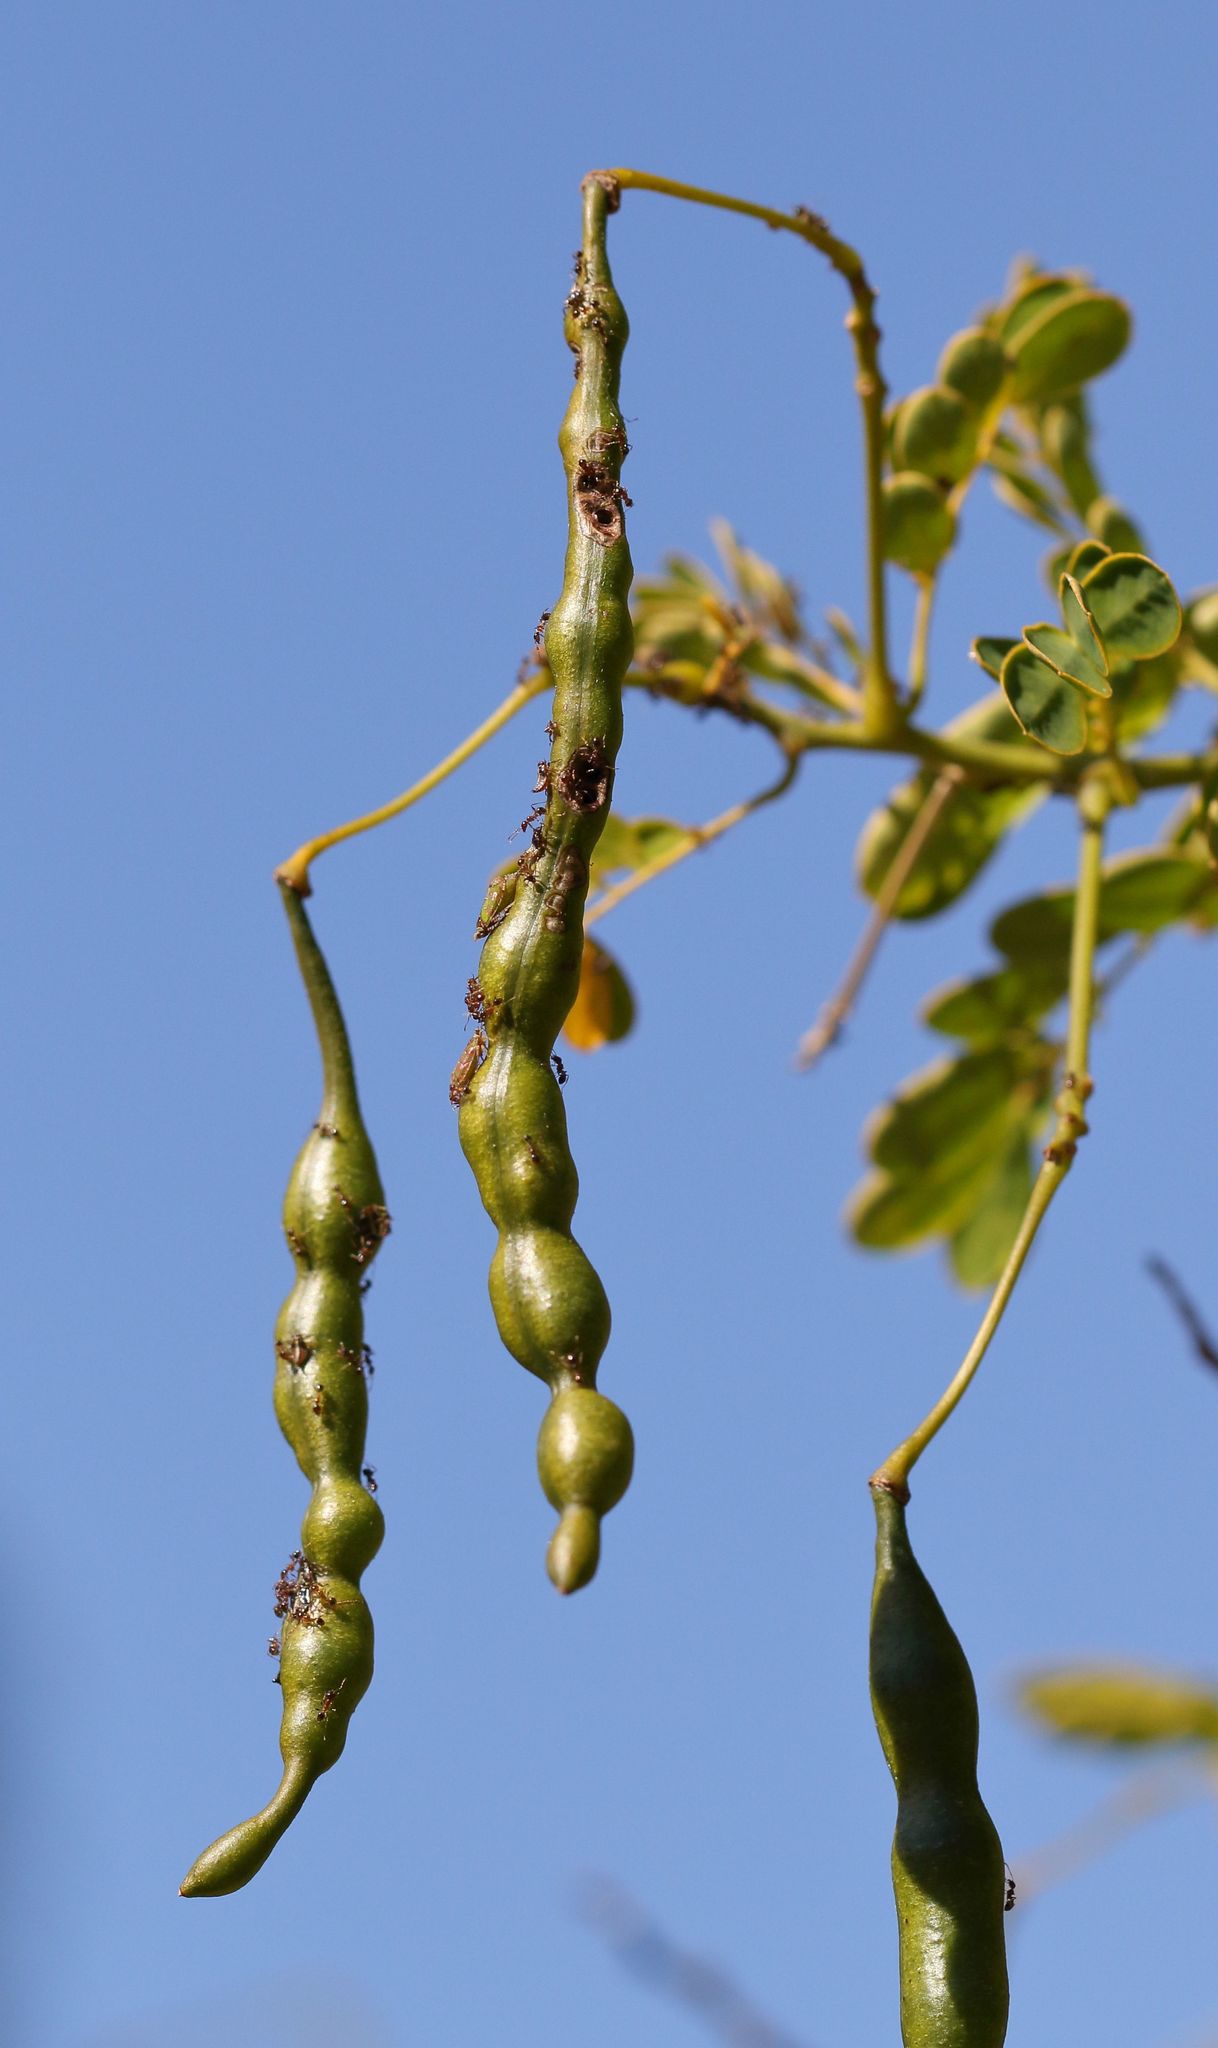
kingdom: Plantae
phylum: Tracheophyta
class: Magnoliopsida
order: Fabales
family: Fabaceae
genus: Senna
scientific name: Senna pendula
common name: Easter cassia
